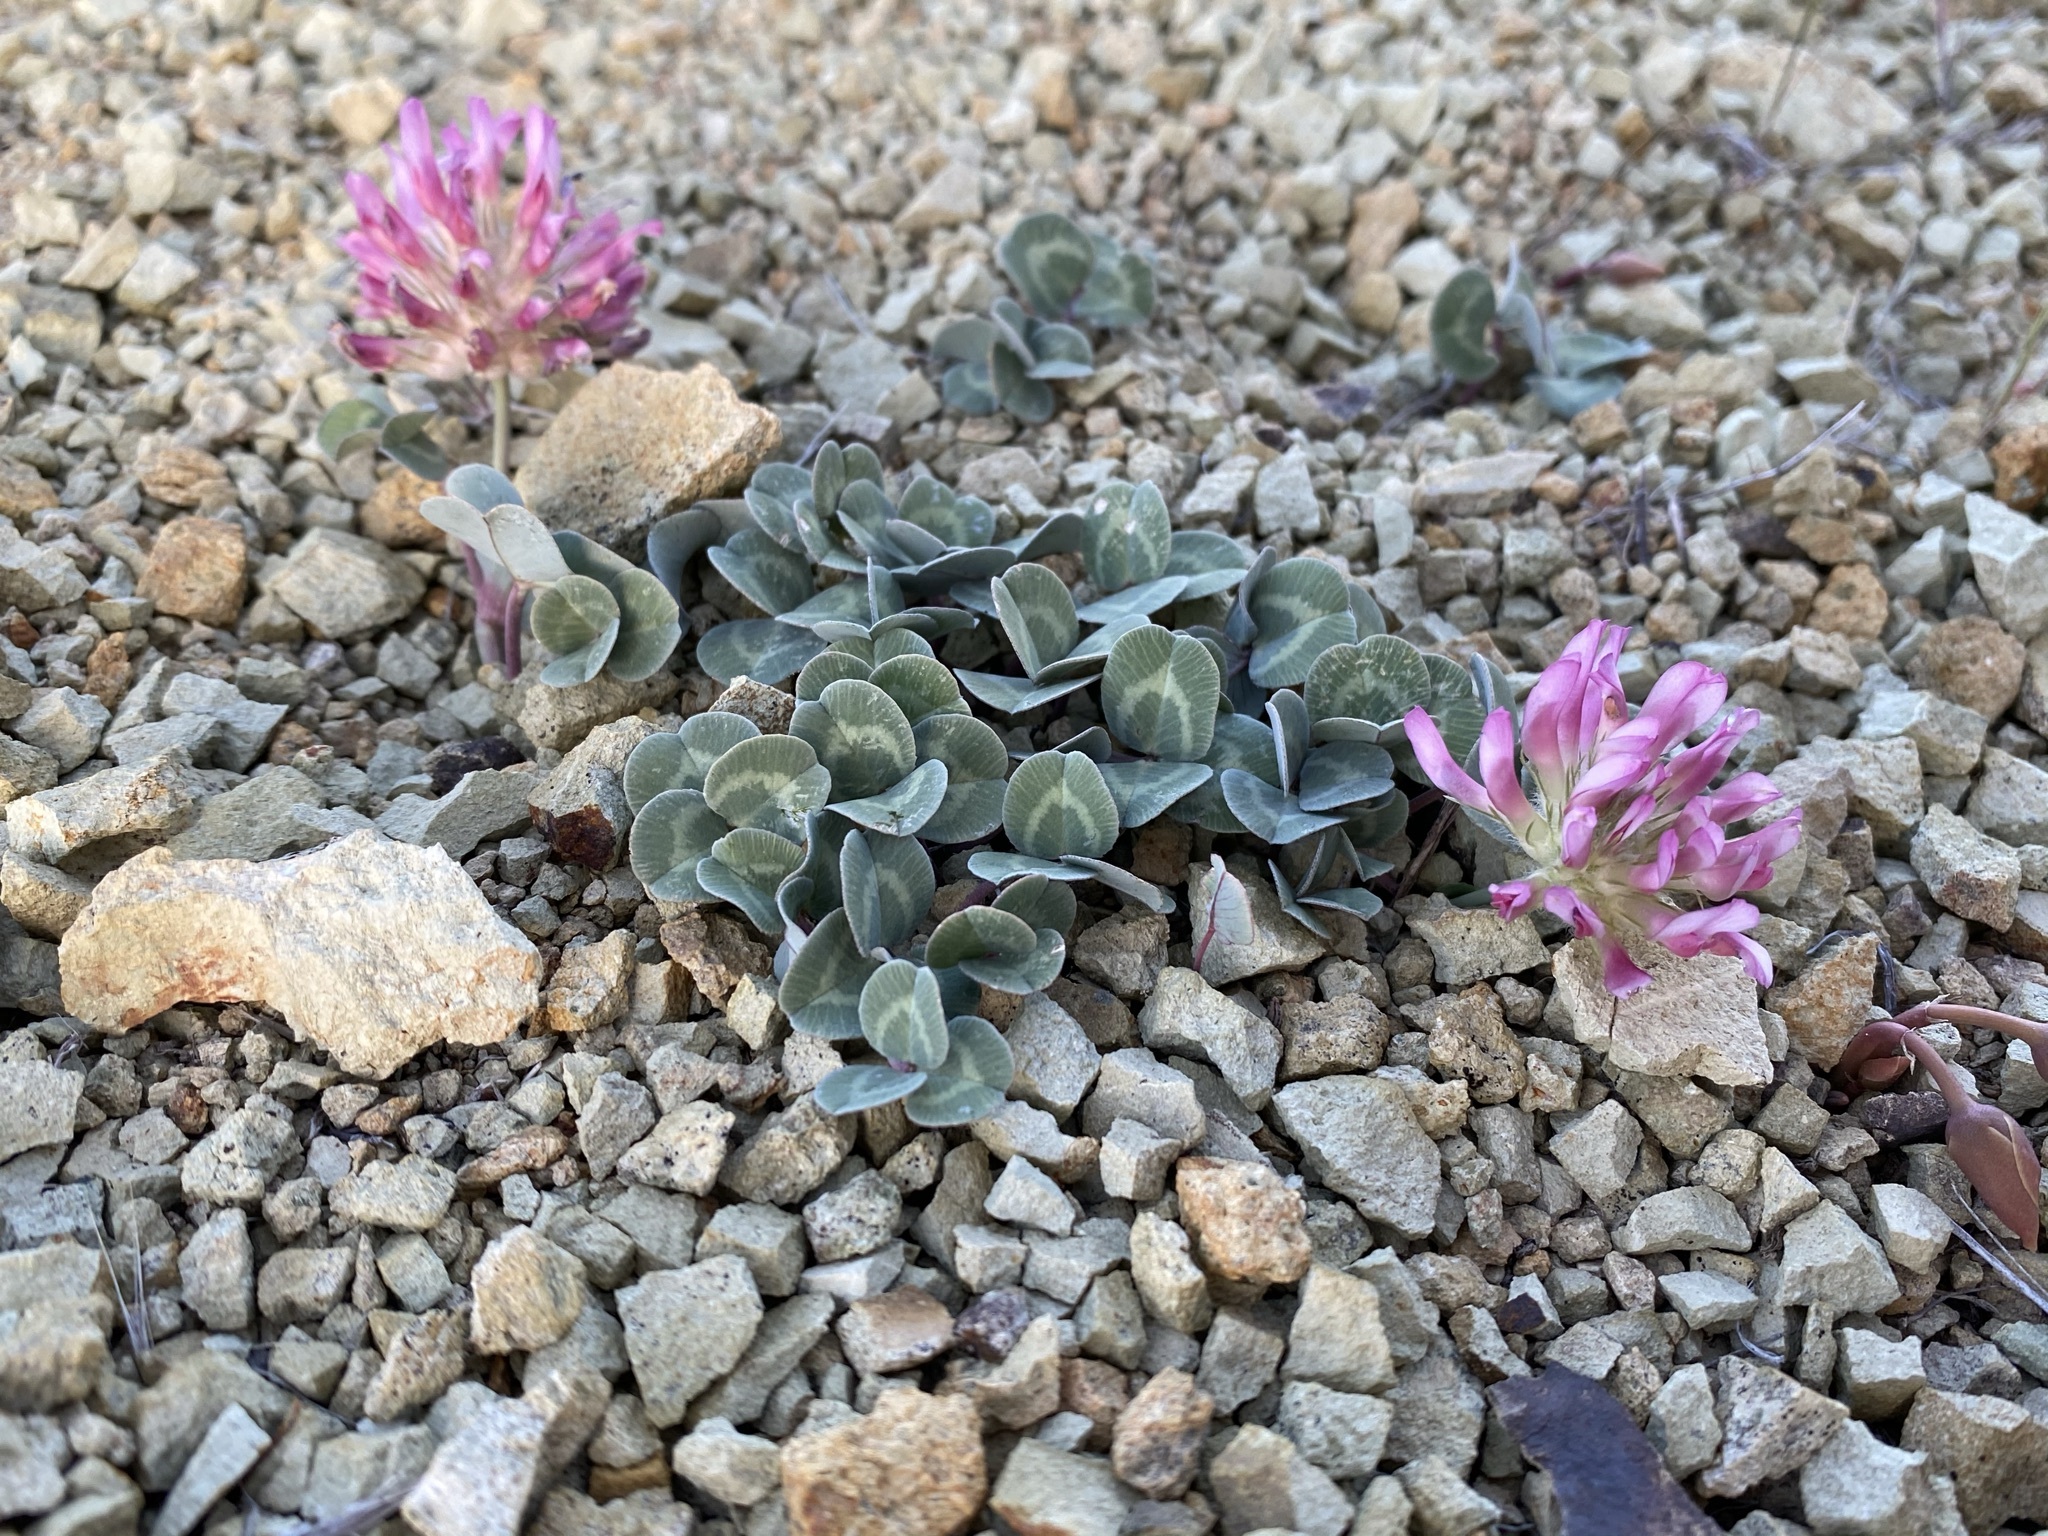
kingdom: Plantae
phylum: Tracheophyta
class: Magnoliopsida
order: Fabales
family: Fabaceae
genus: Trifolium
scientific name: Trifolium owyheense
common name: Owyhee clover
